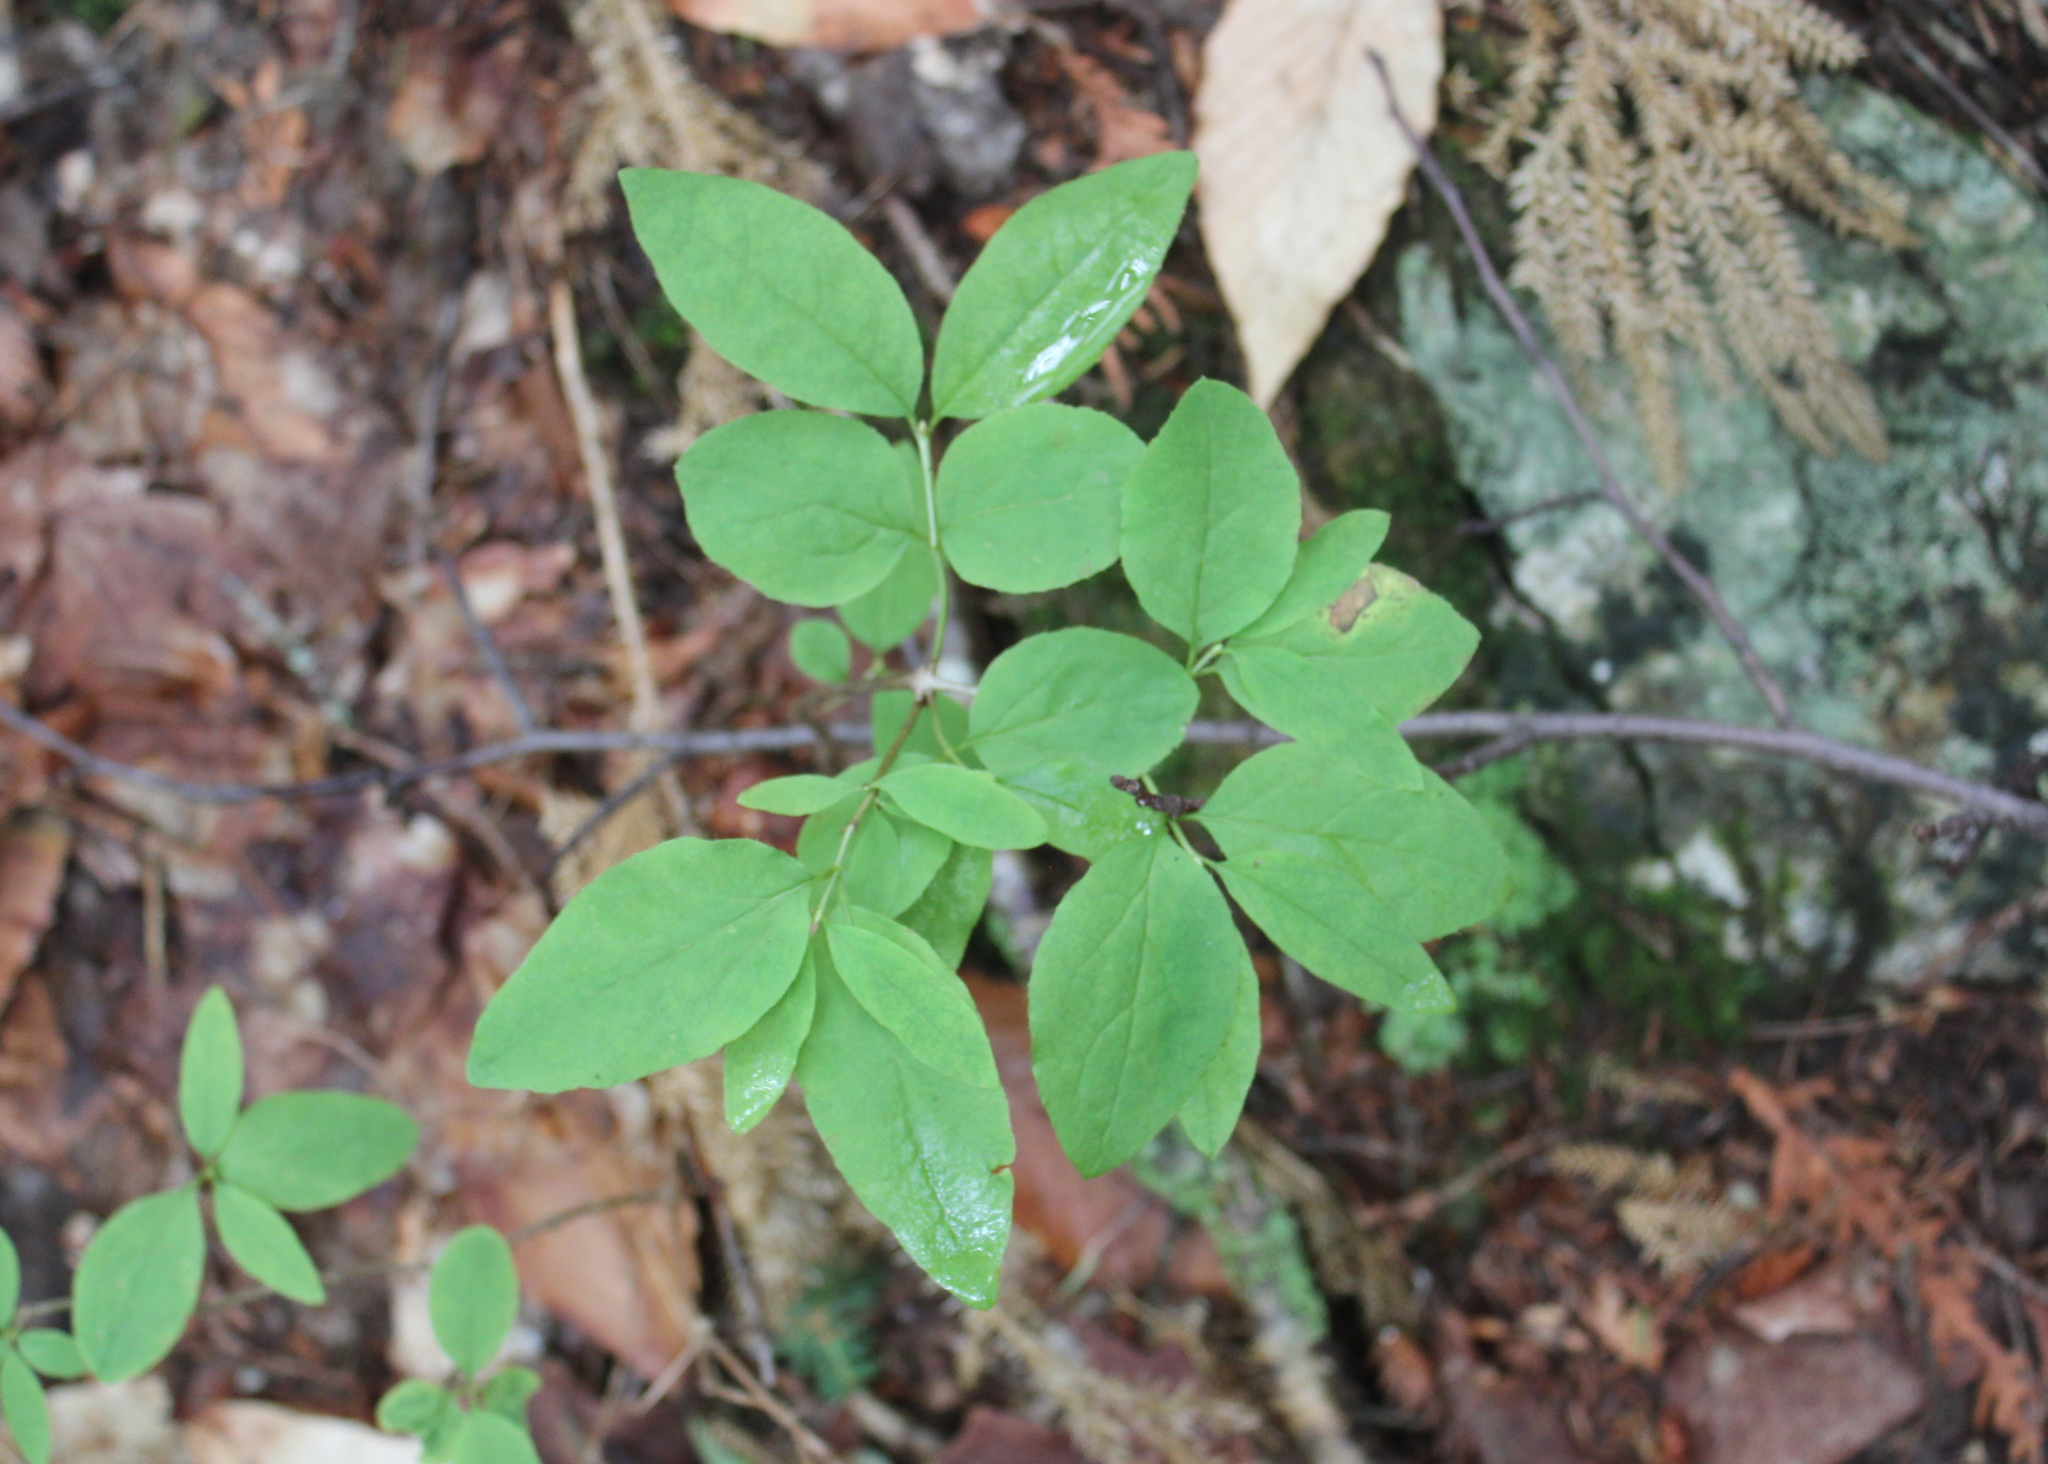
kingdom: Plantae
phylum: Tracheophyta
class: Magnoliopsida
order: Dipsacales
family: Caprifoliaceae
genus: Lonicera
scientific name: Lonicera canadensis
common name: American fly-honeysuckle
